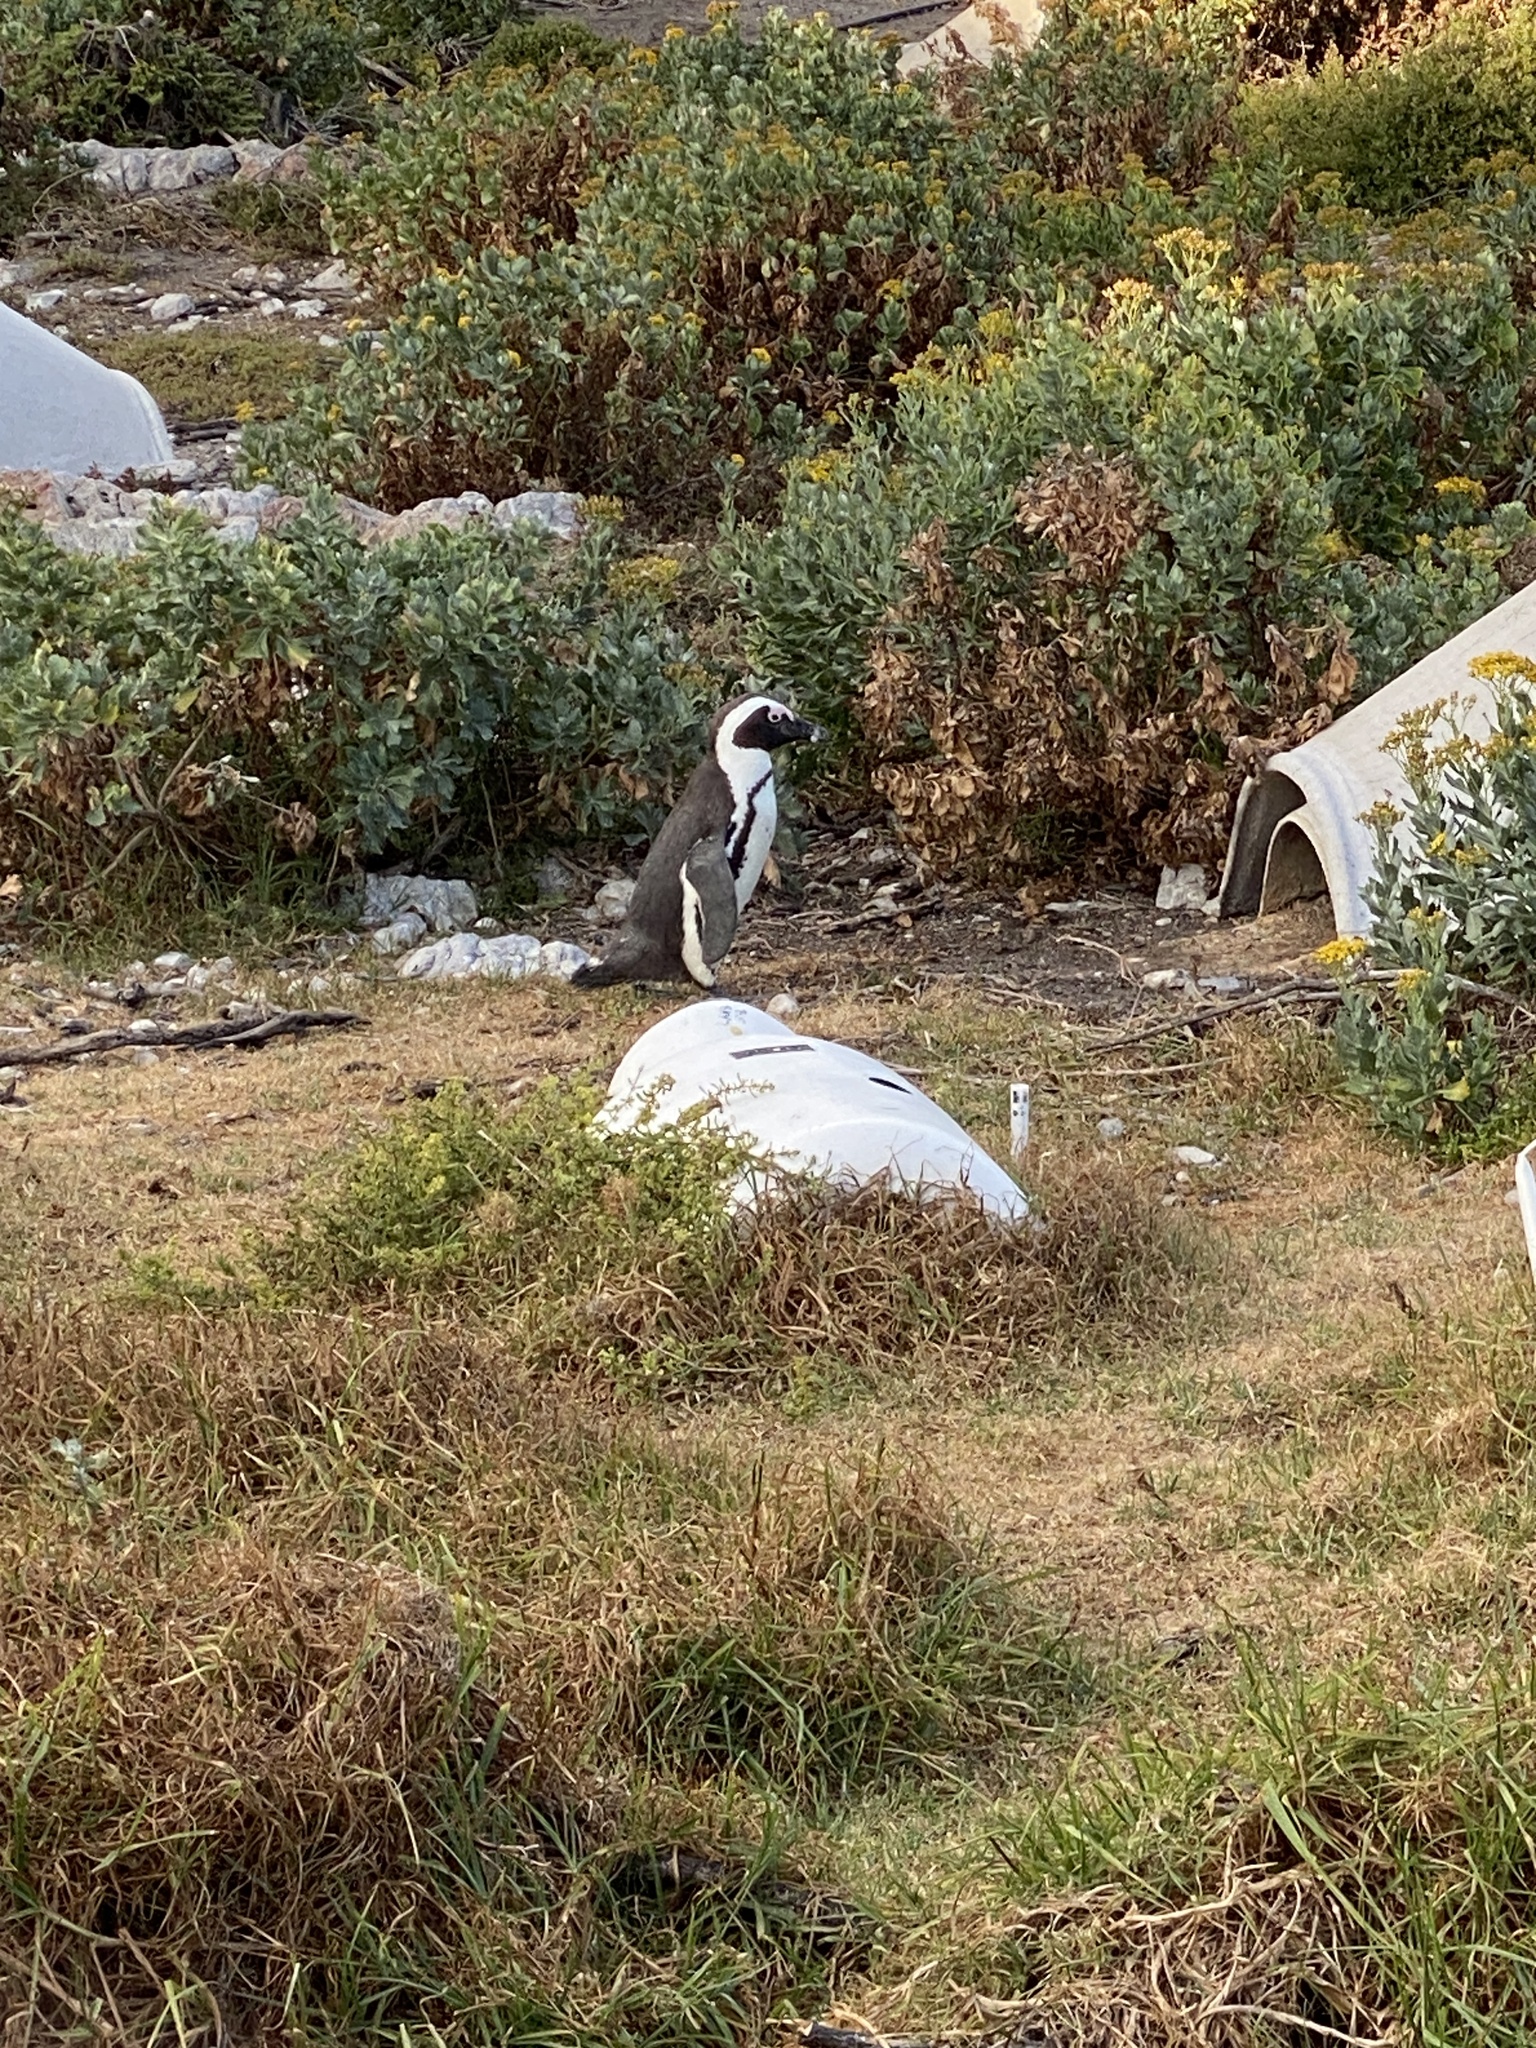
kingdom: Animalia
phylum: Chordata
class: Aves
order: Sphenisciformes
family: Spheniscidae
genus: Spheniscus
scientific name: Spheniscus demersus
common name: African penguin
